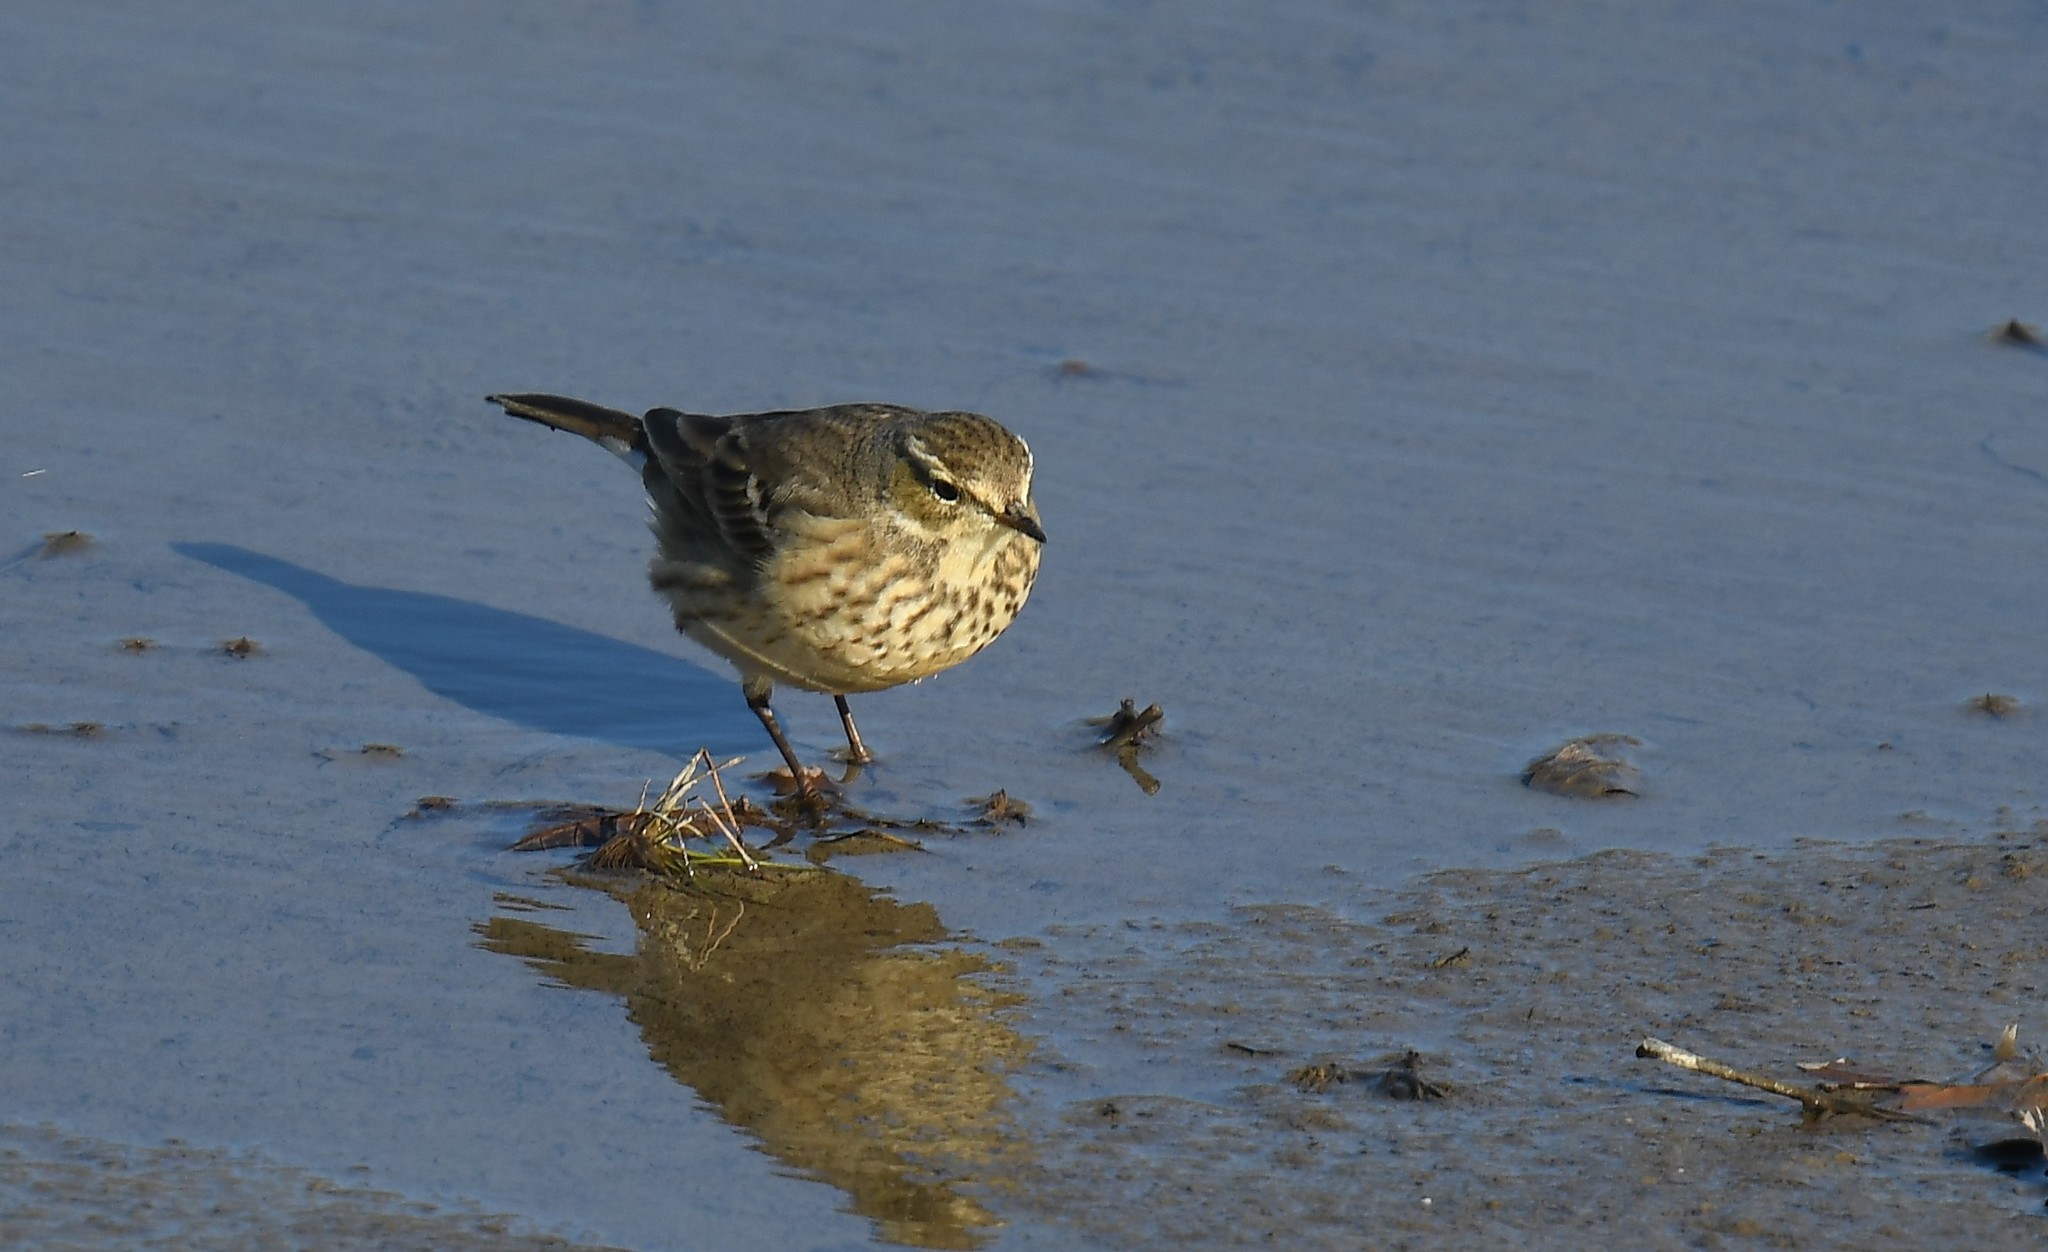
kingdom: Animalia
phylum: Chordata
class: Aves
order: Passeriformes
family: Motacillidae
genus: Anthus
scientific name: Anthus rubescens
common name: Buff-bellied pipit
